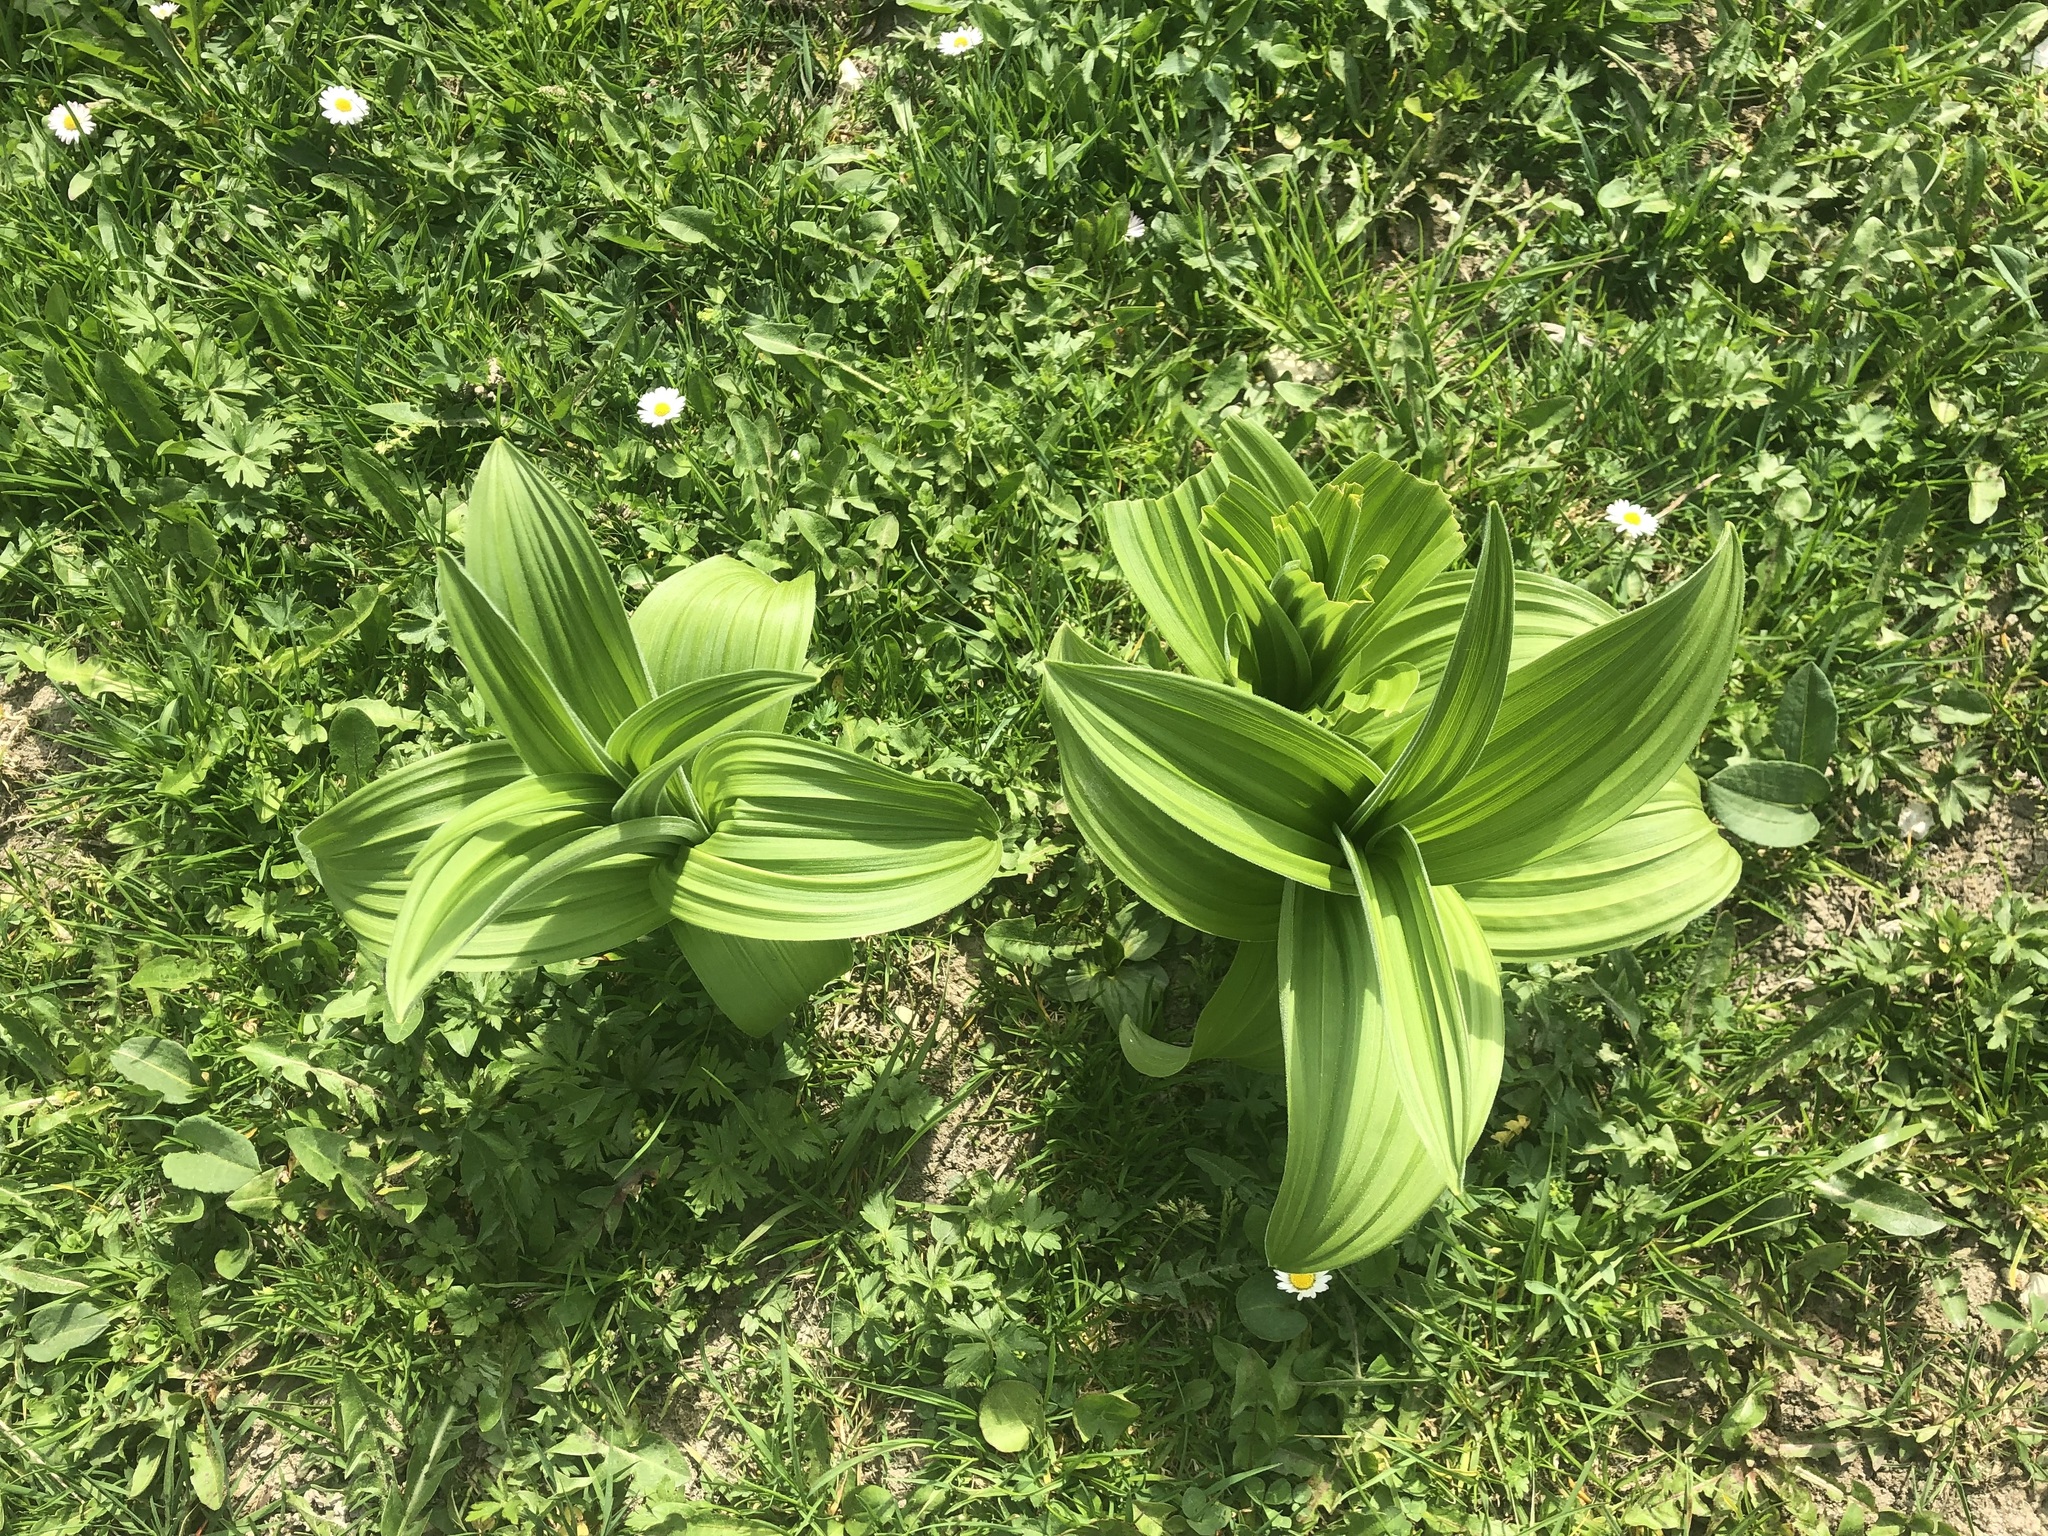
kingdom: Plantae
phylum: Tracheophyta
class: Liliopsida
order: Liliales
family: Melanthiaceae
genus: Veratrum
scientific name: Veratrum album
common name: White veratrum
